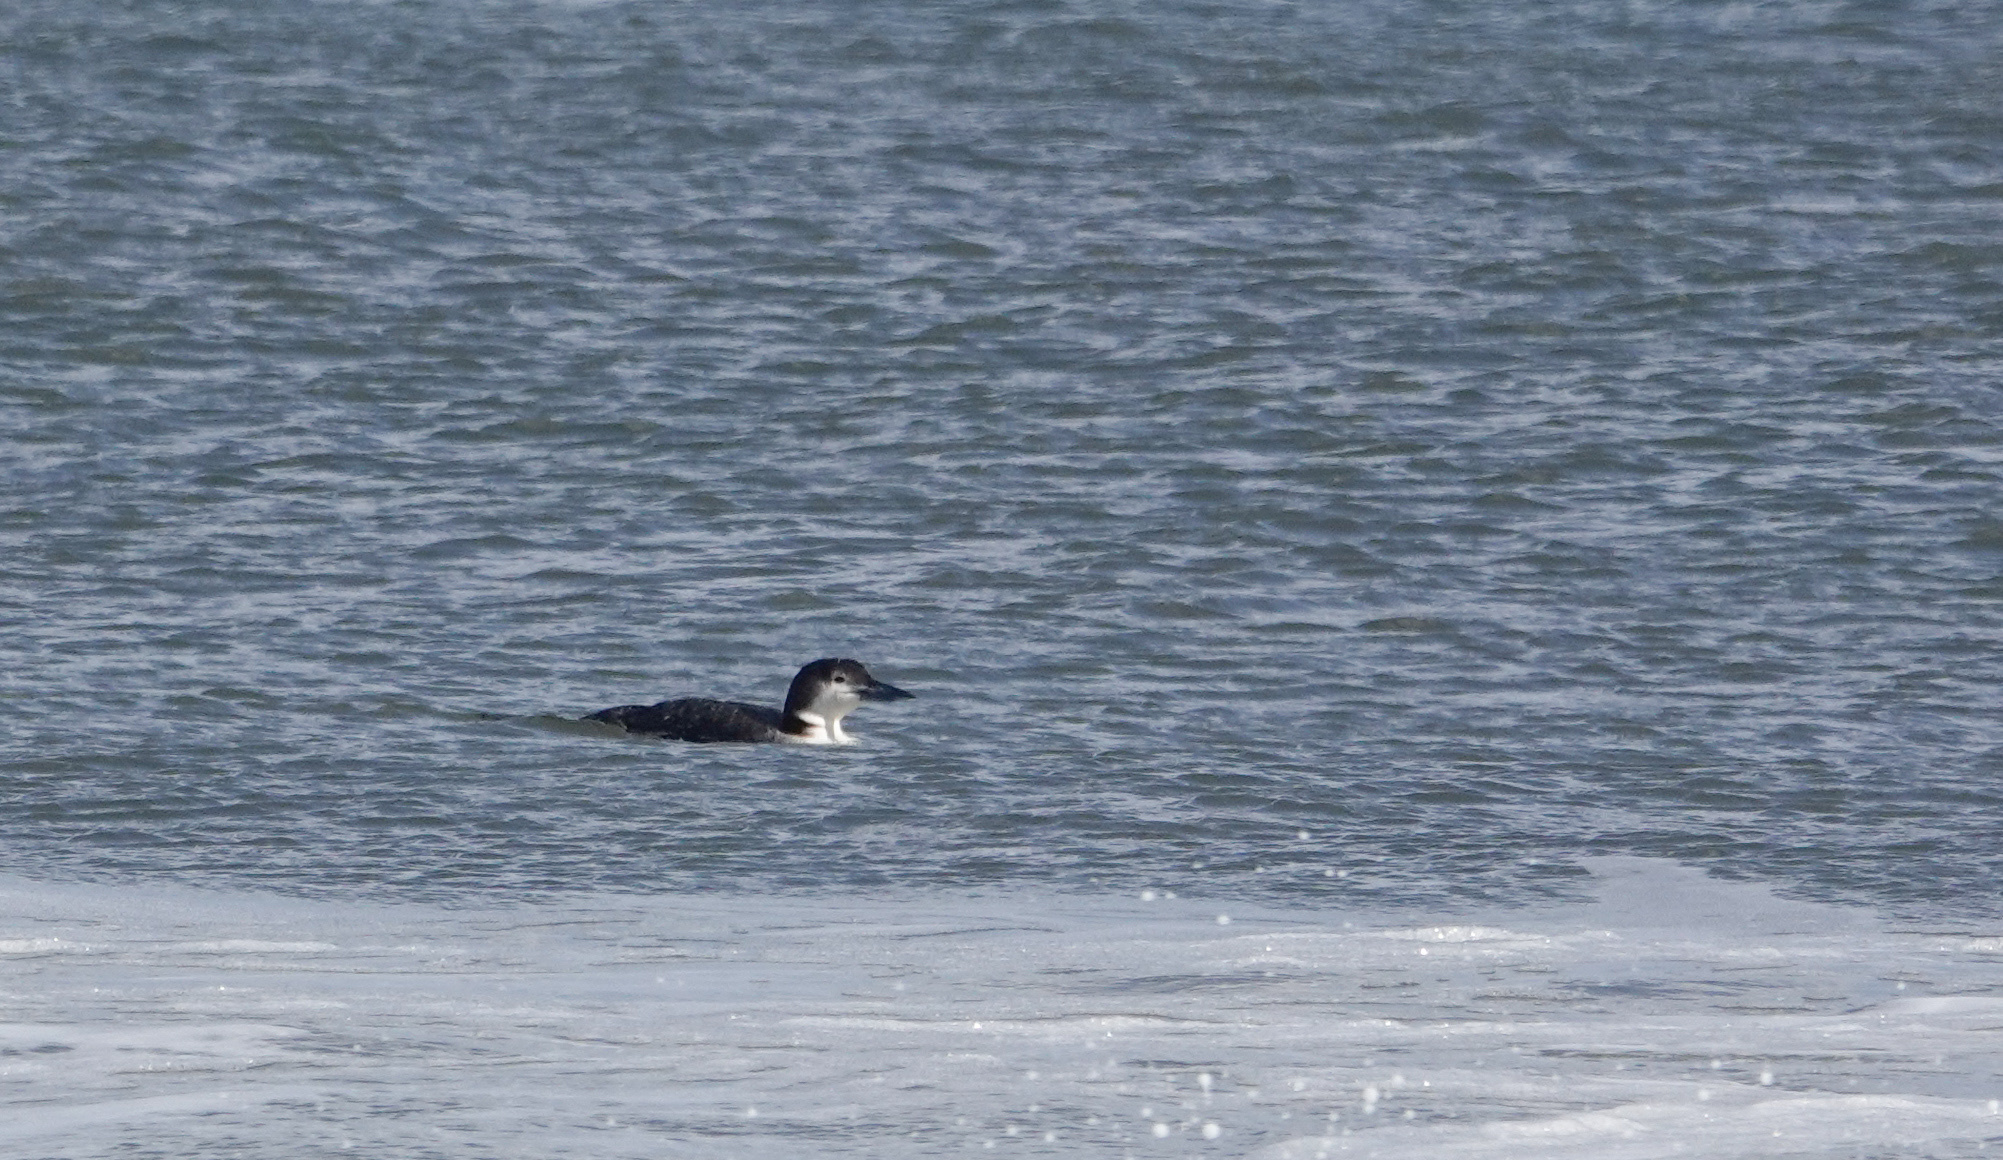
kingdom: Animalia
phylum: Chordata
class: Aves
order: Gaviiformes
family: Gaviidae
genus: Gavia
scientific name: Gavia immer
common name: Common loon
